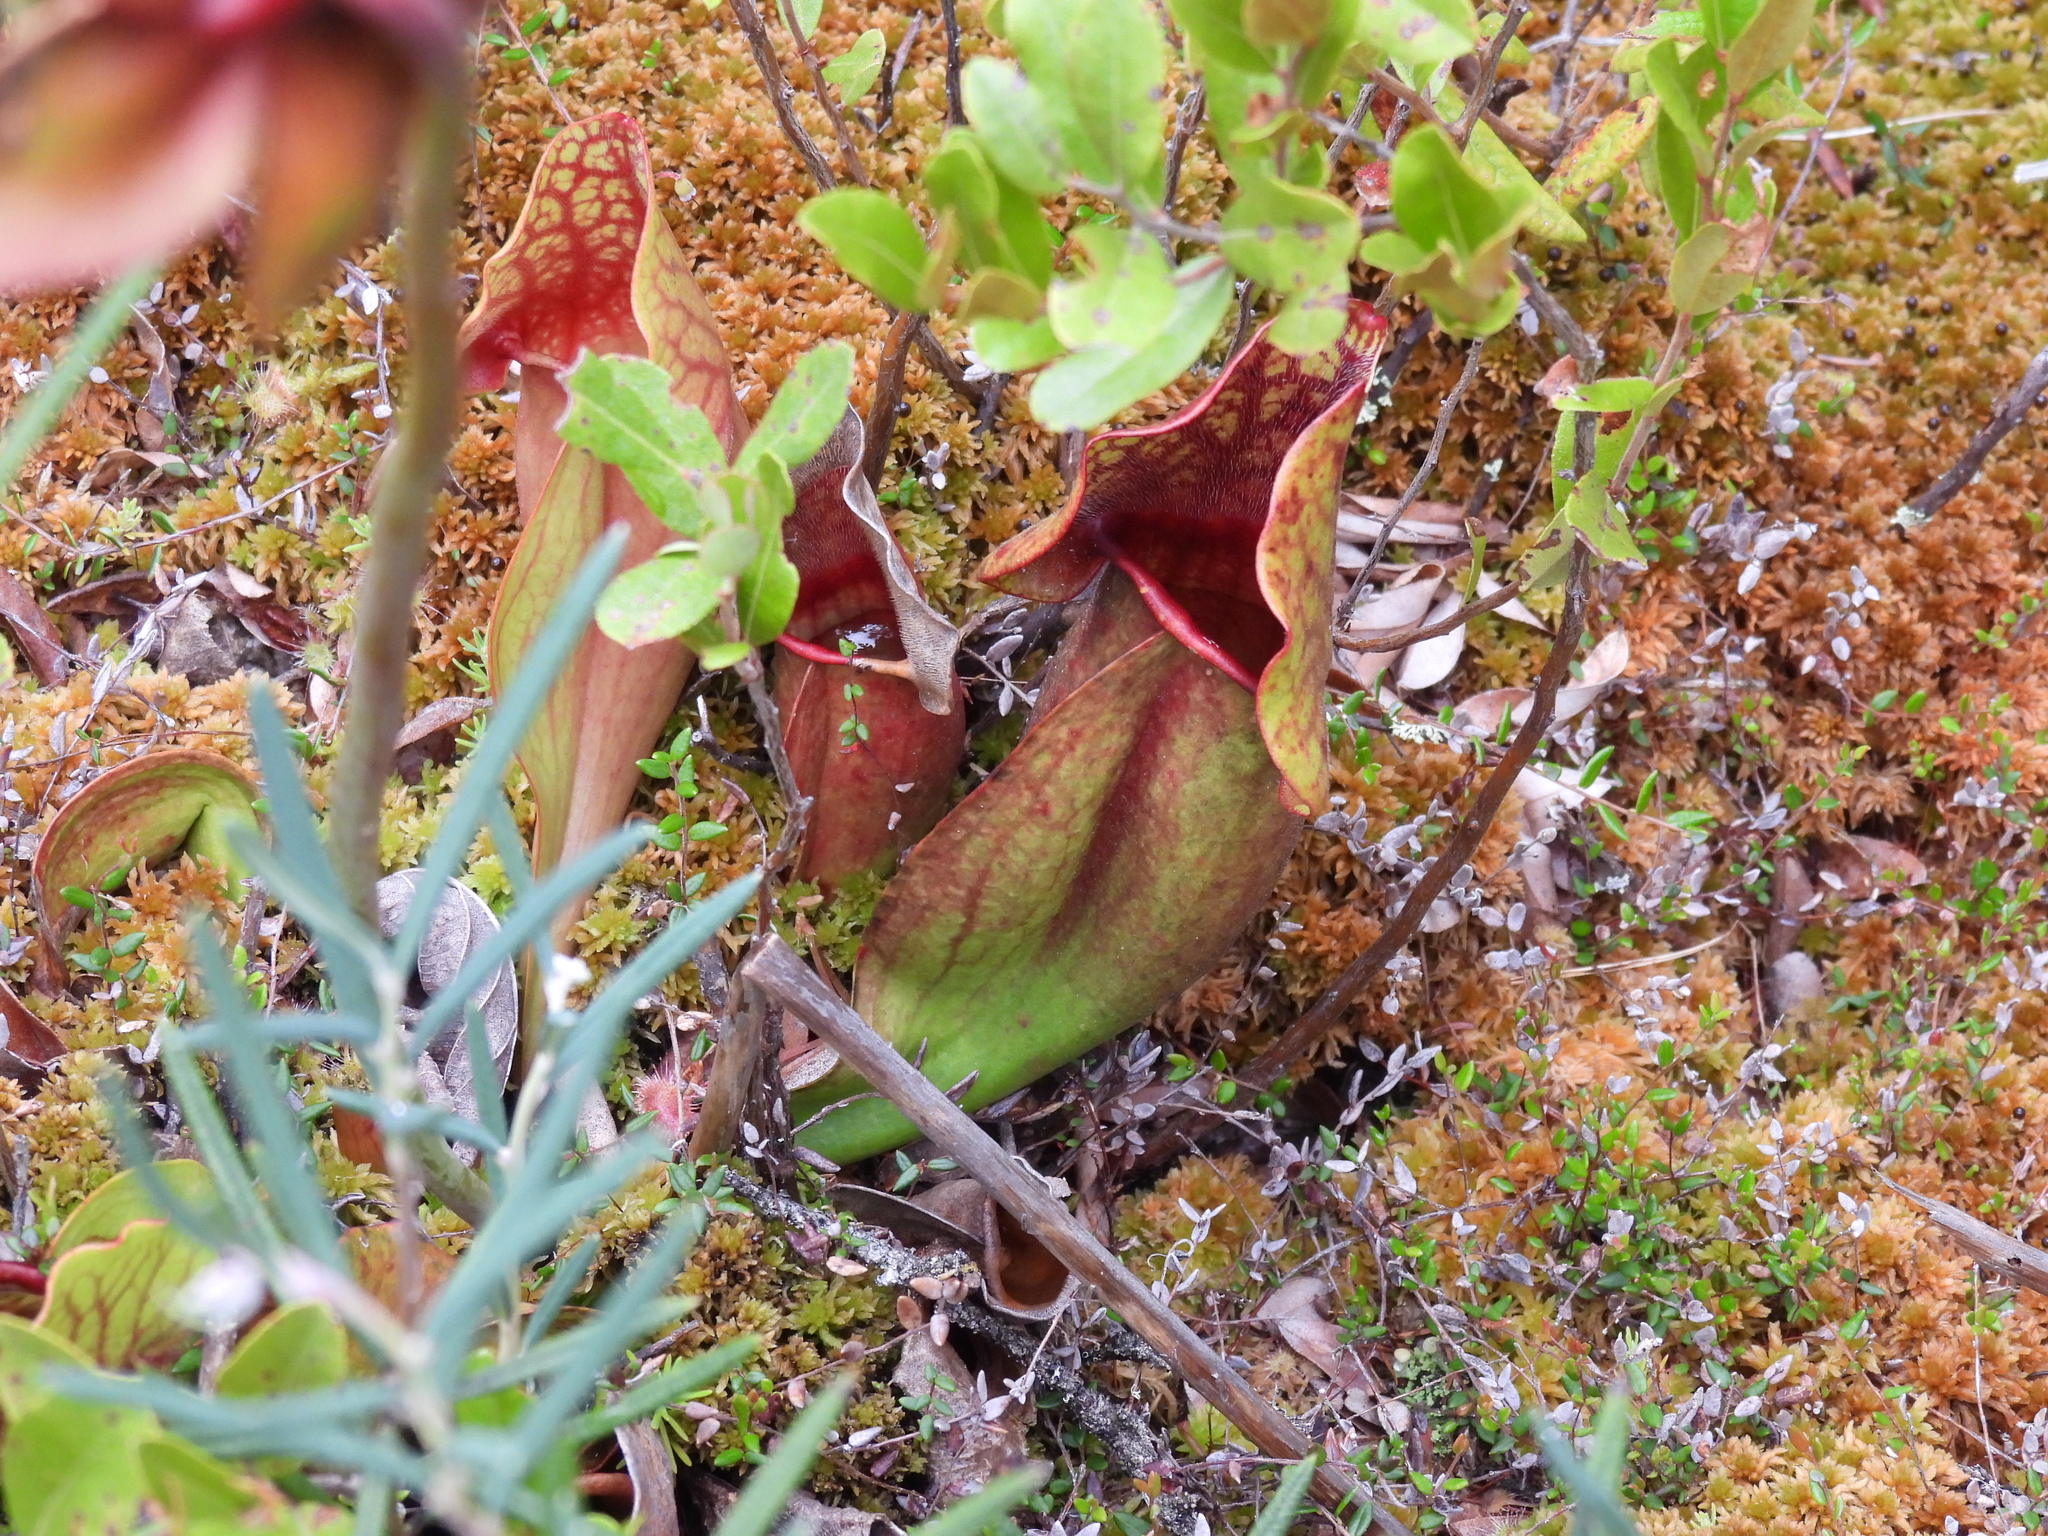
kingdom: Plantae
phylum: Tracheophyta
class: Magnoliopsida
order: Ericales
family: Sarraceniaceae
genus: Sarracenia
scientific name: Sarracenia purpurea
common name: Pitcherplant
